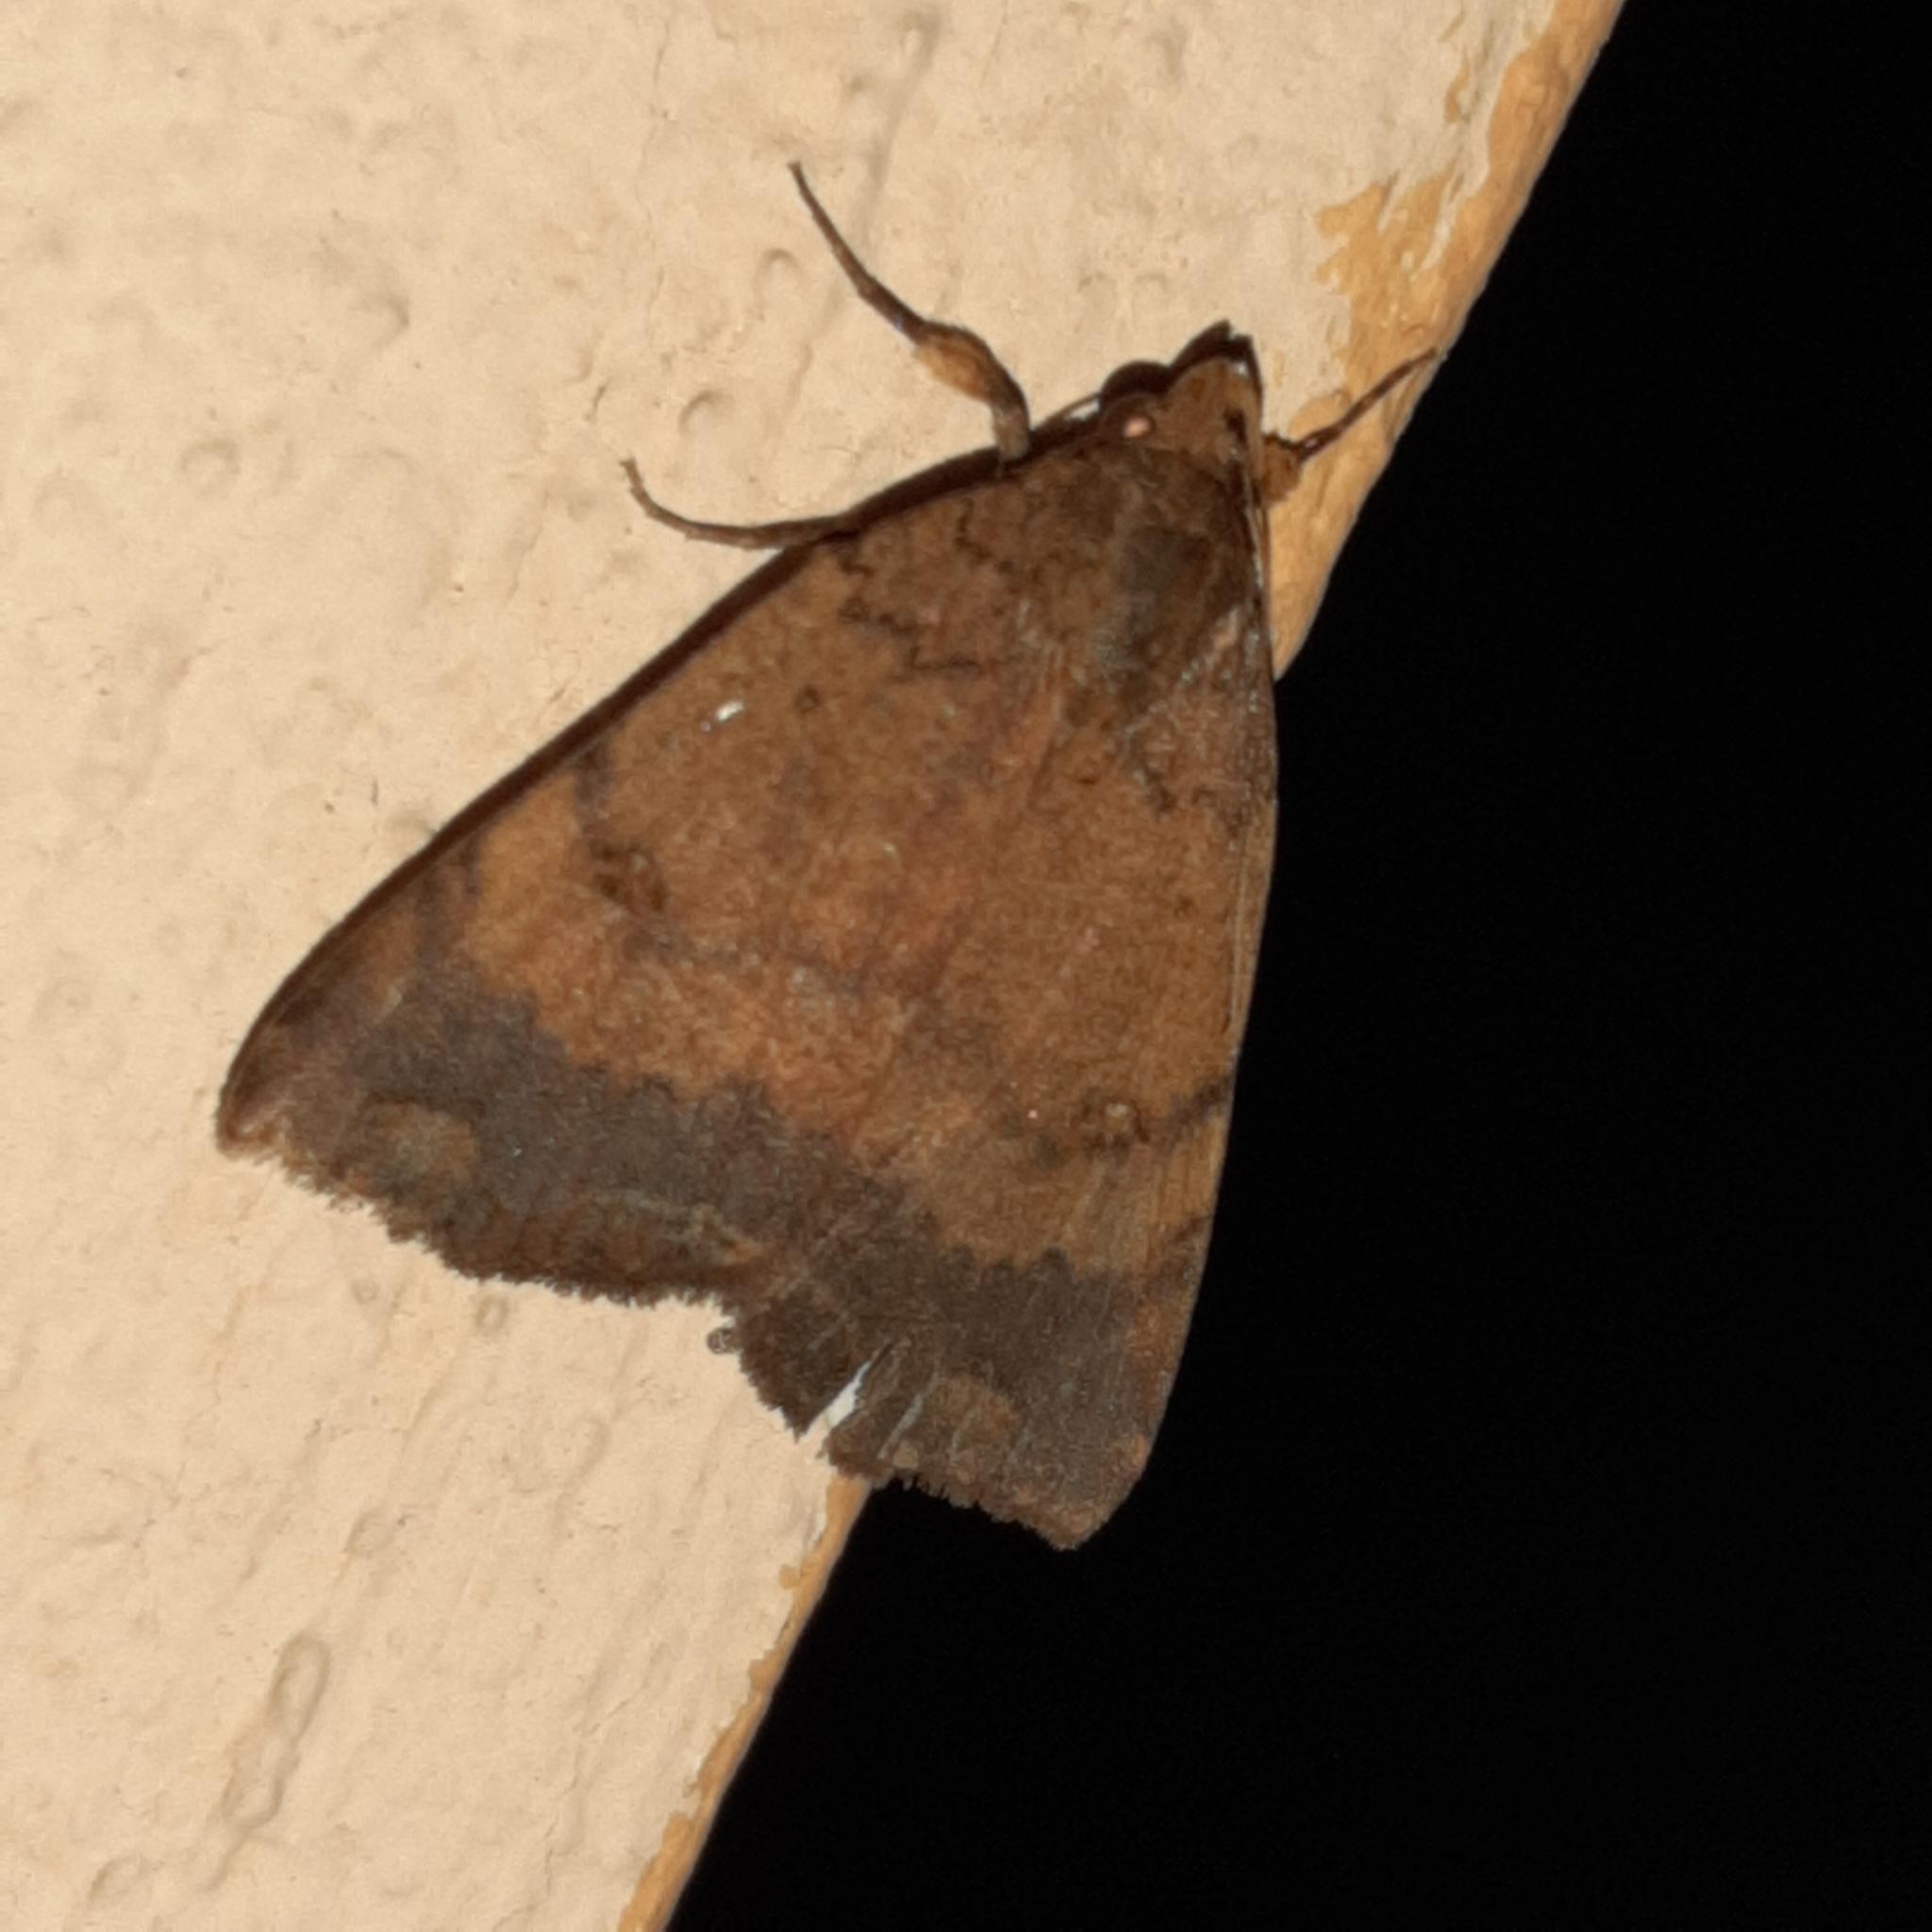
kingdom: Animalia
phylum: Arthropoda
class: Insecta
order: Lepidoptera
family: Erebidae
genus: Pyrgion
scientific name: Pyrgion repanda
